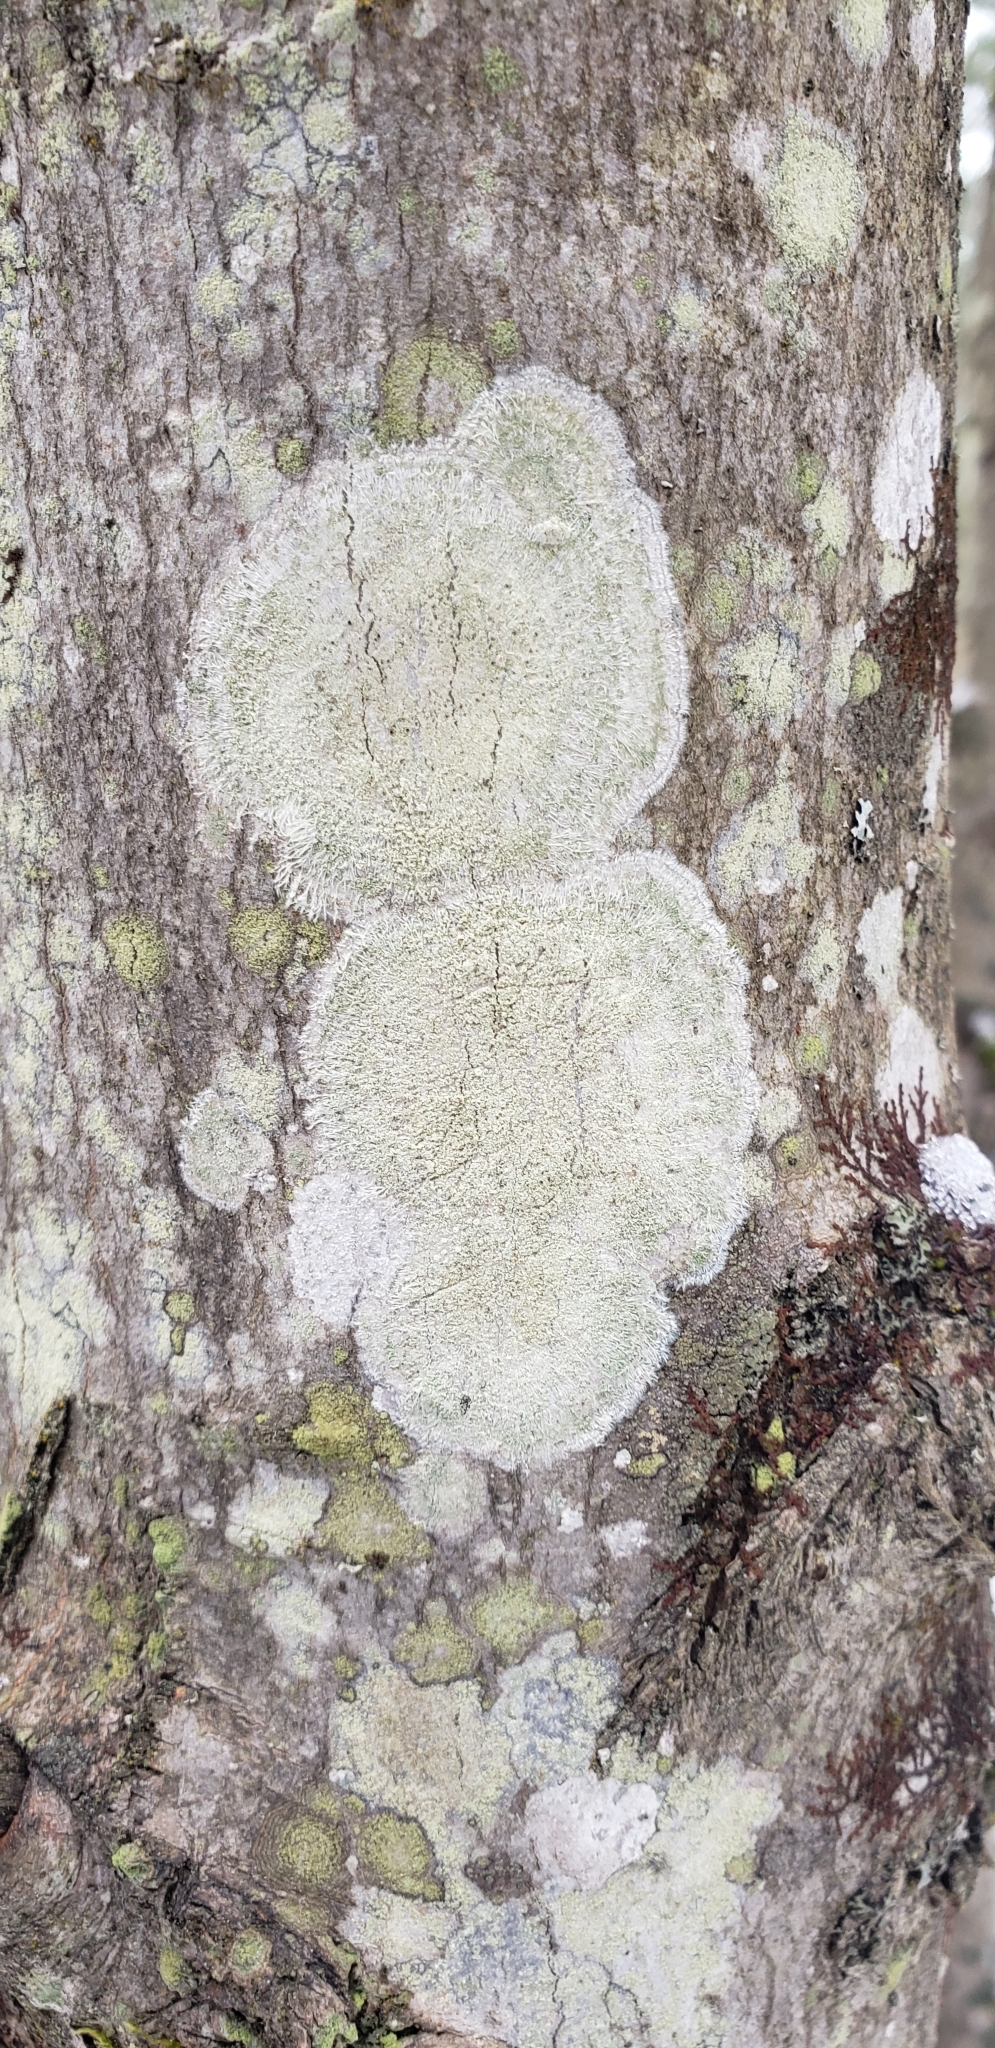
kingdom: Fungi
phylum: Ascomycota
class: Lecanoromycetes
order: Pertusariales
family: Pertusariaceae
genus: Verseghya
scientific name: Verseghya thysanophora
